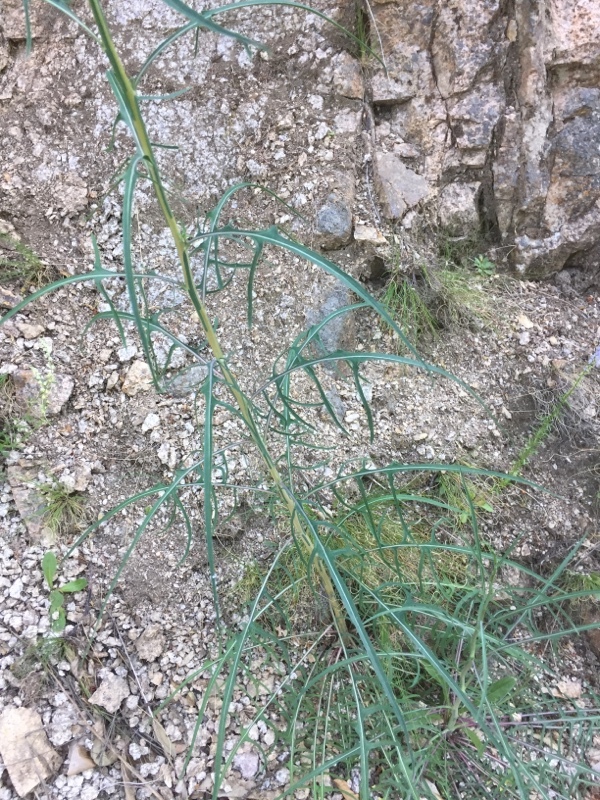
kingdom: Plantae
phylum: Tracheophyta
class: Magnoliopsida
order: Asterales
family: Asteraceae
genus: Lactuca
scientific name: Lactuca viminea
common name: Pliant lettuce
